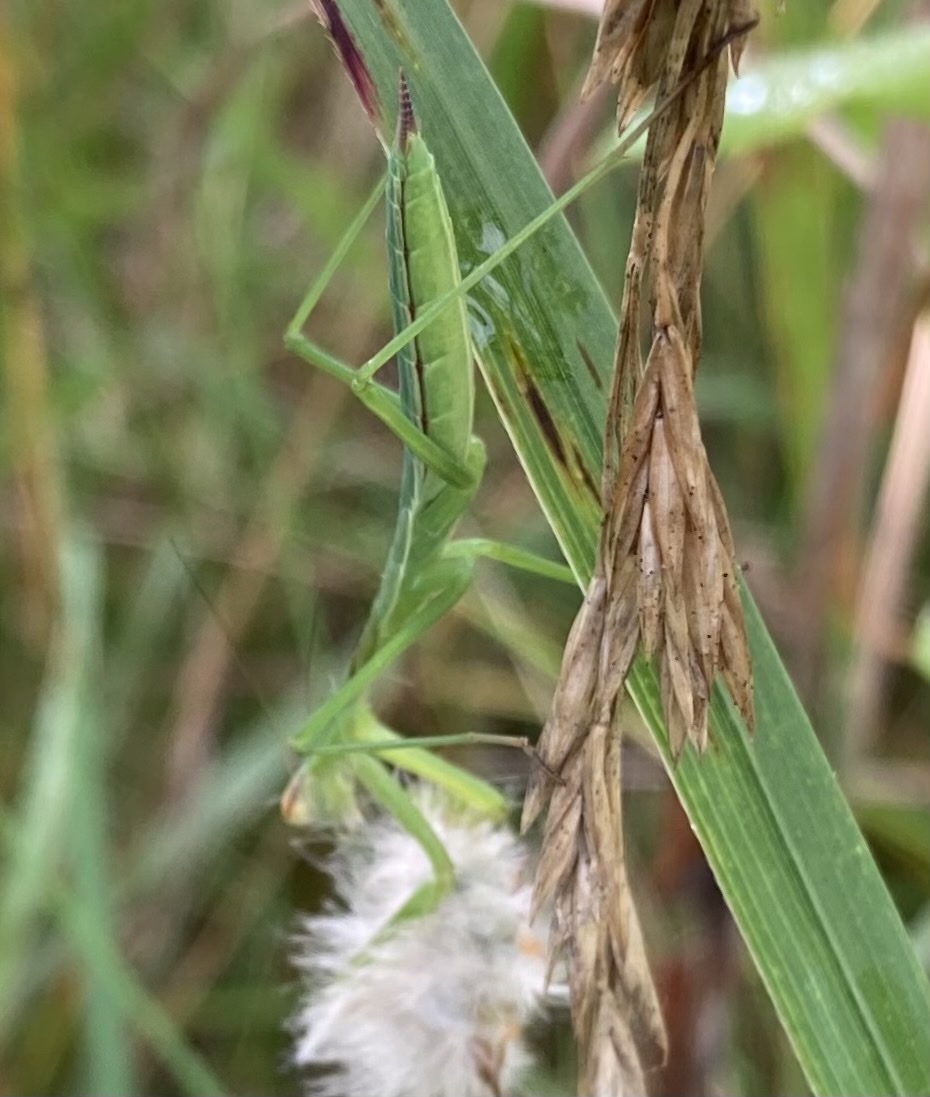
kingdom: Animalia
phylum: Arthropoda
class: Insecta
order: Mantodea
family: Mantidae
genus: Tenodera
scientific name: Tenodera sinensis
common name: Chinese mantis
